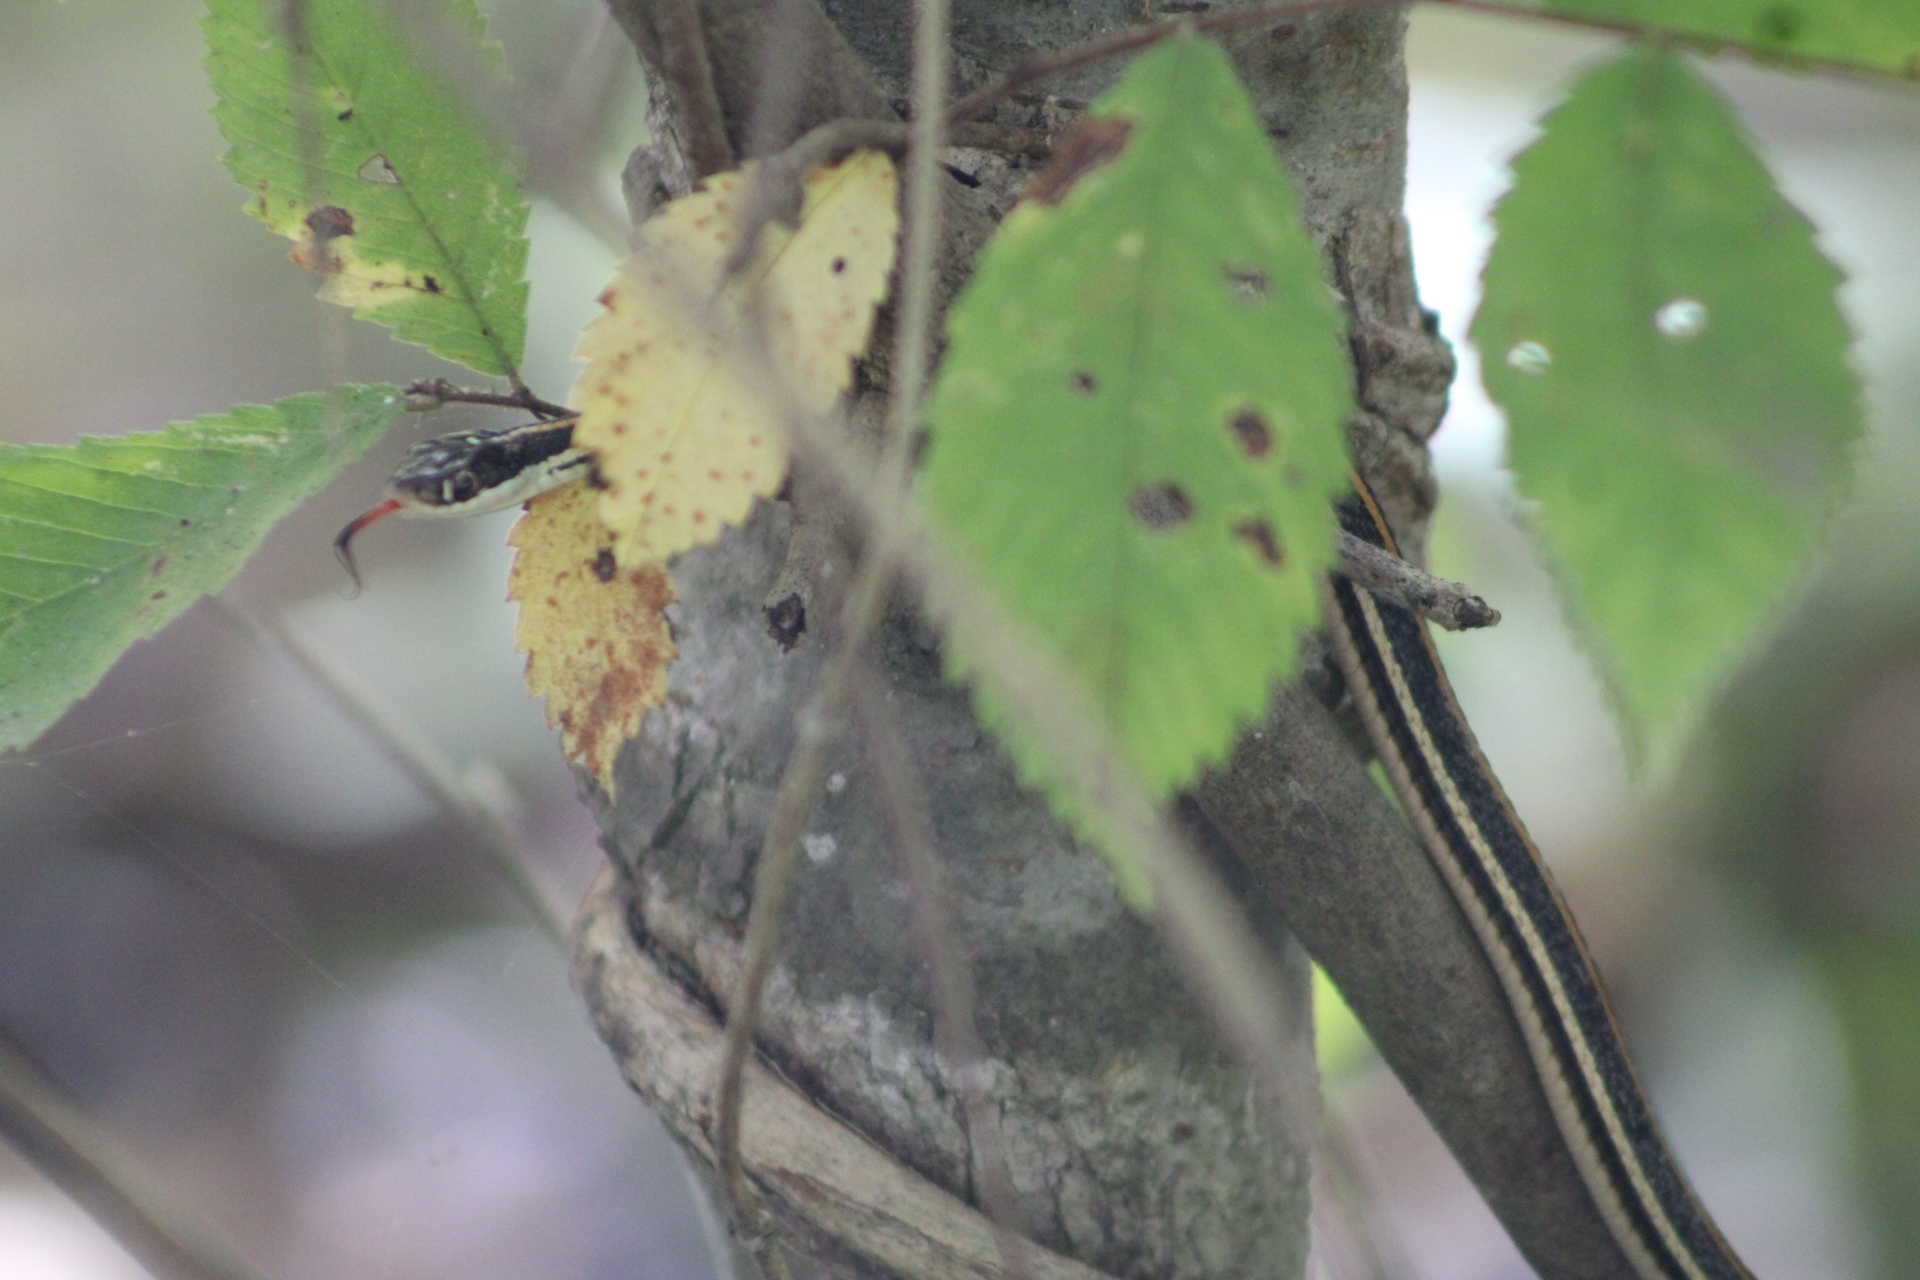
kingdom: Animalia
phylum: Chordata
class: Squamata
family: Colubridae
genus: Thamnophis
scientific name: Thamnophis proximus
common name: Western ribbon snake
